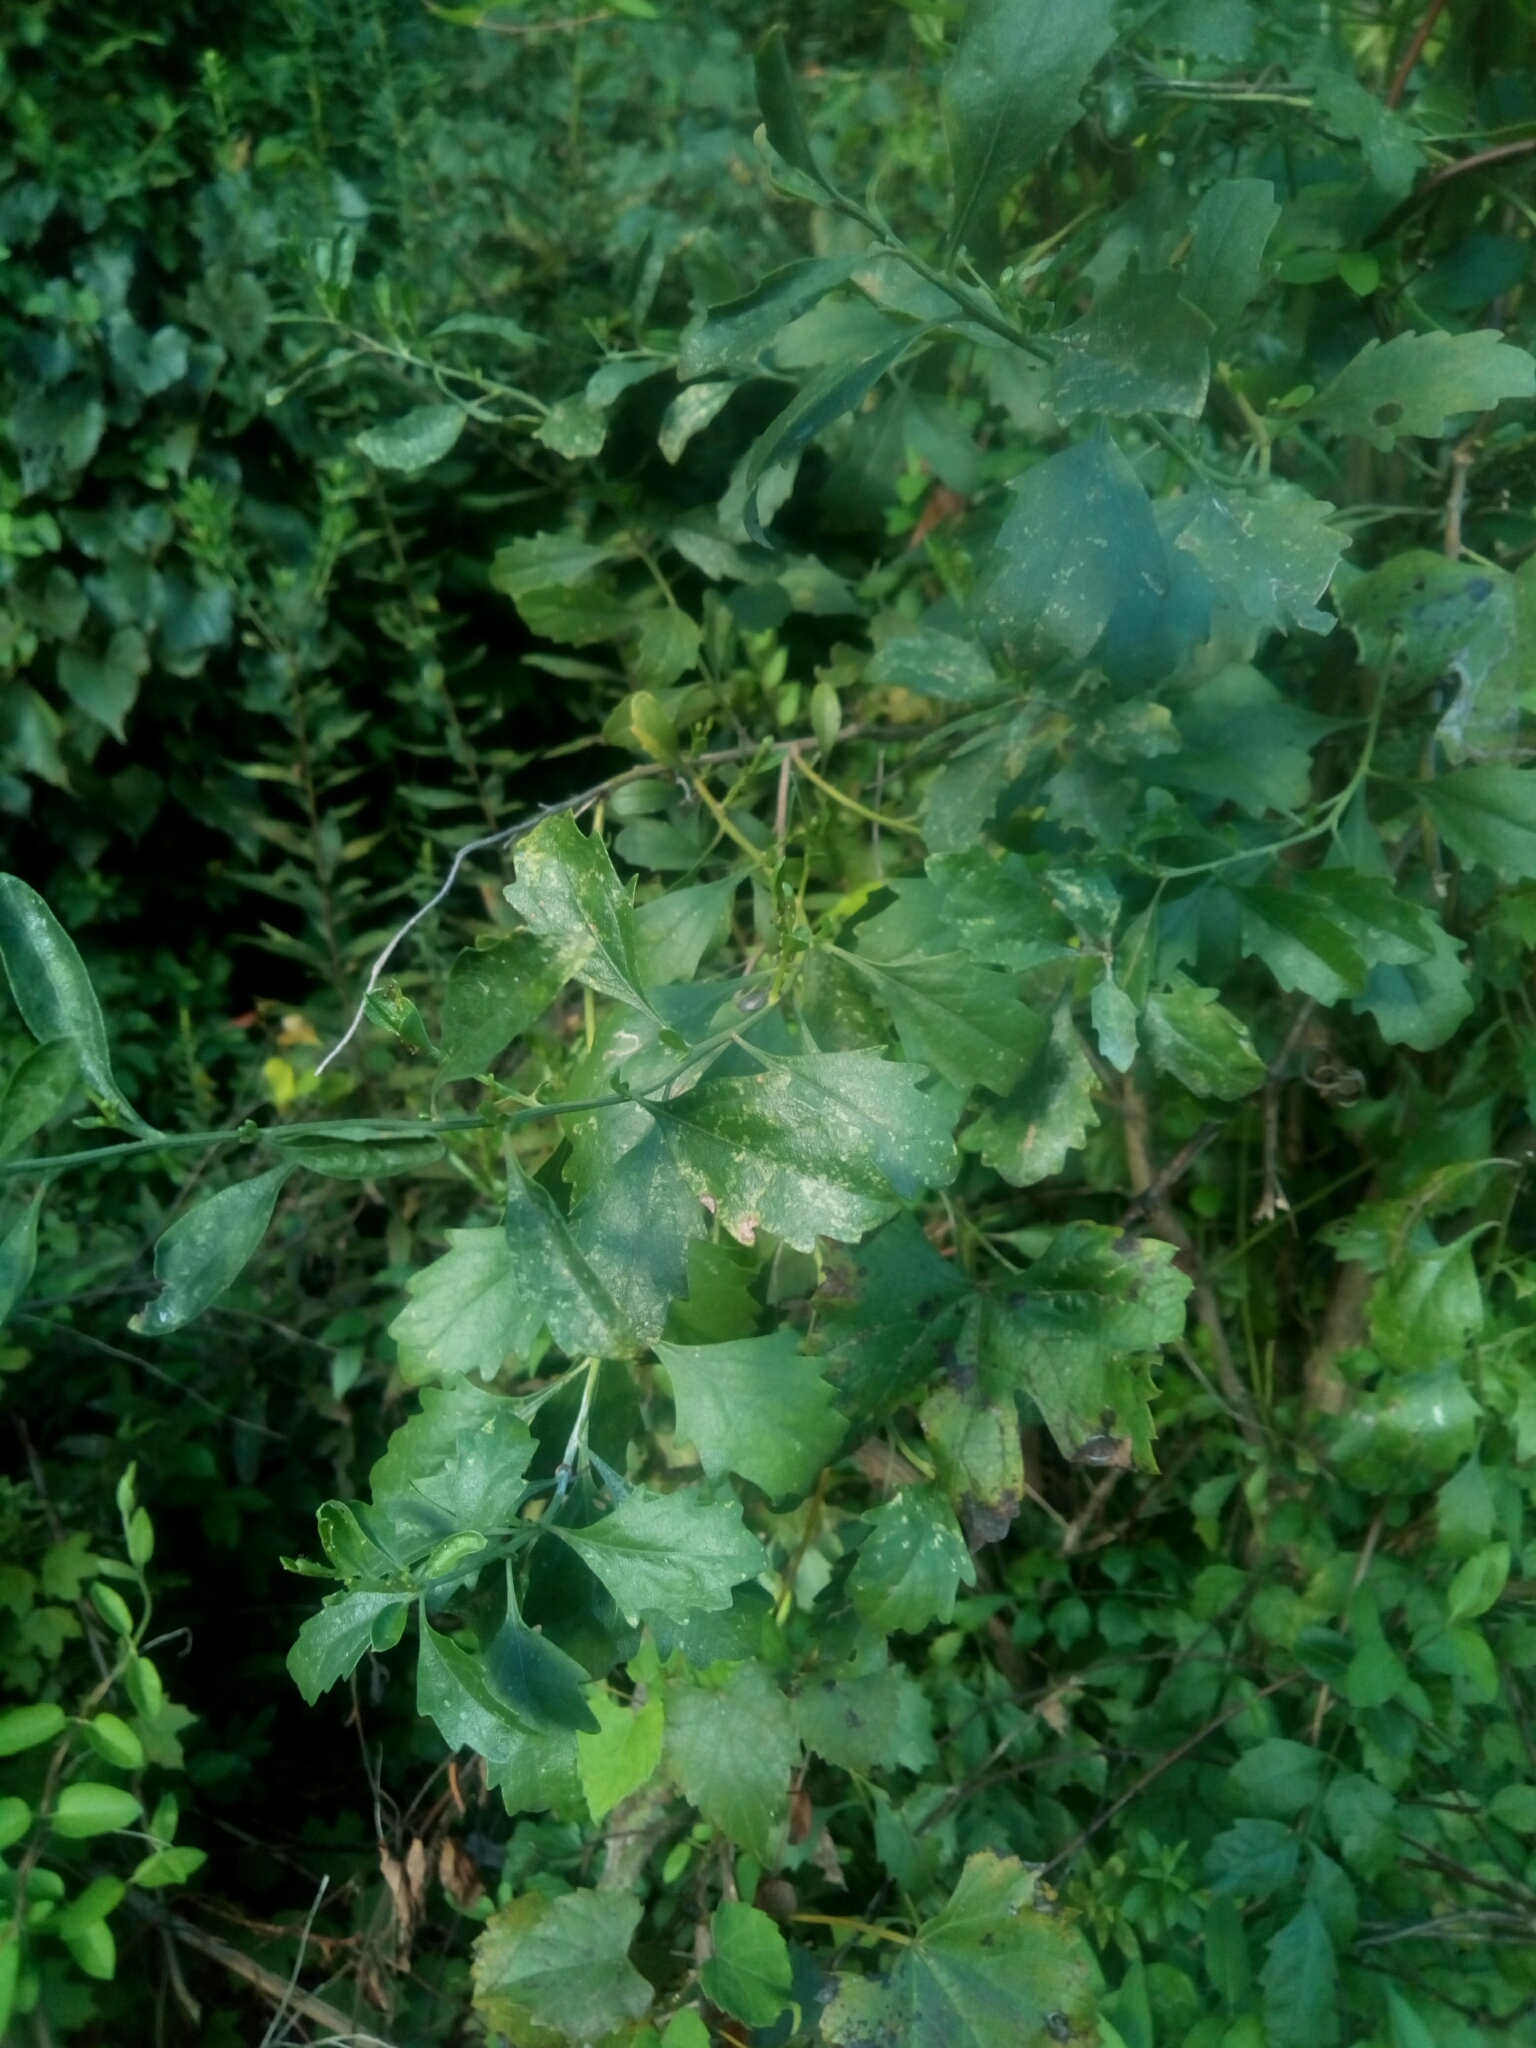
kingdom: Plantae
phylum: Tracheophyta
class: Magnoliopsida
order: Asterales
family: Asteraceae
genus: Baccharis
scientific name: Baccharis halimifolia
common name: Eastern baccharis
